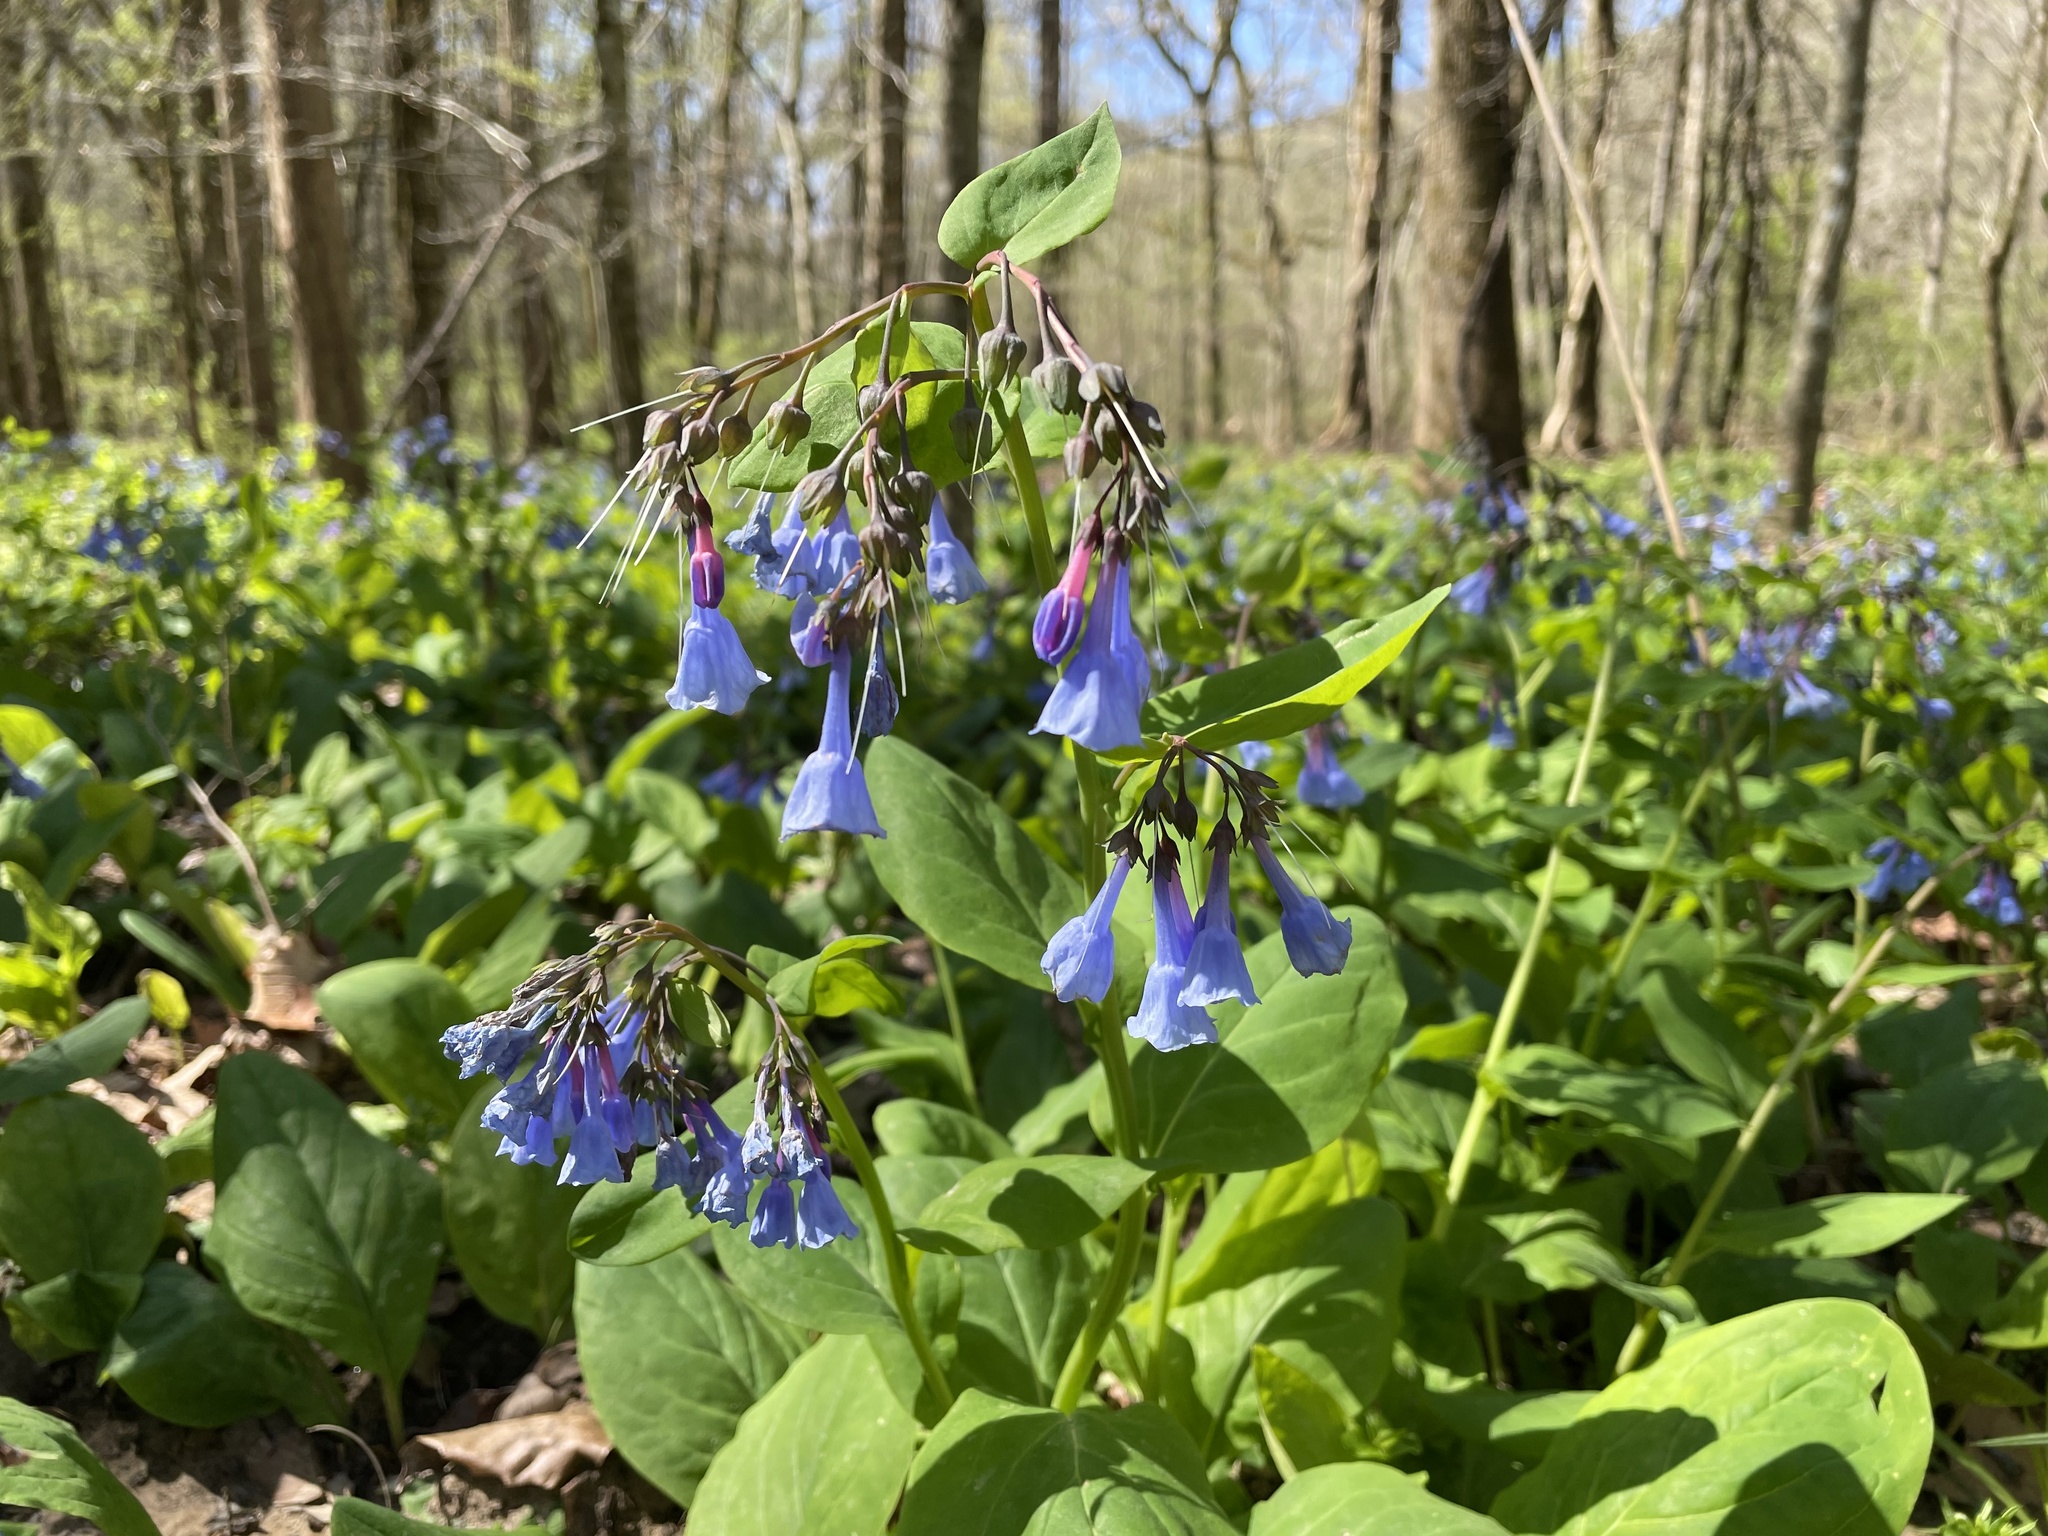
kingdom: Plantae
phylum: Tracheophyta
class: Magnoliopsida
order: Boraginales
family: Boraginaceae
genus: Mertensia
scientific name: Mertensia virginica
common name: Virginia bluebells
